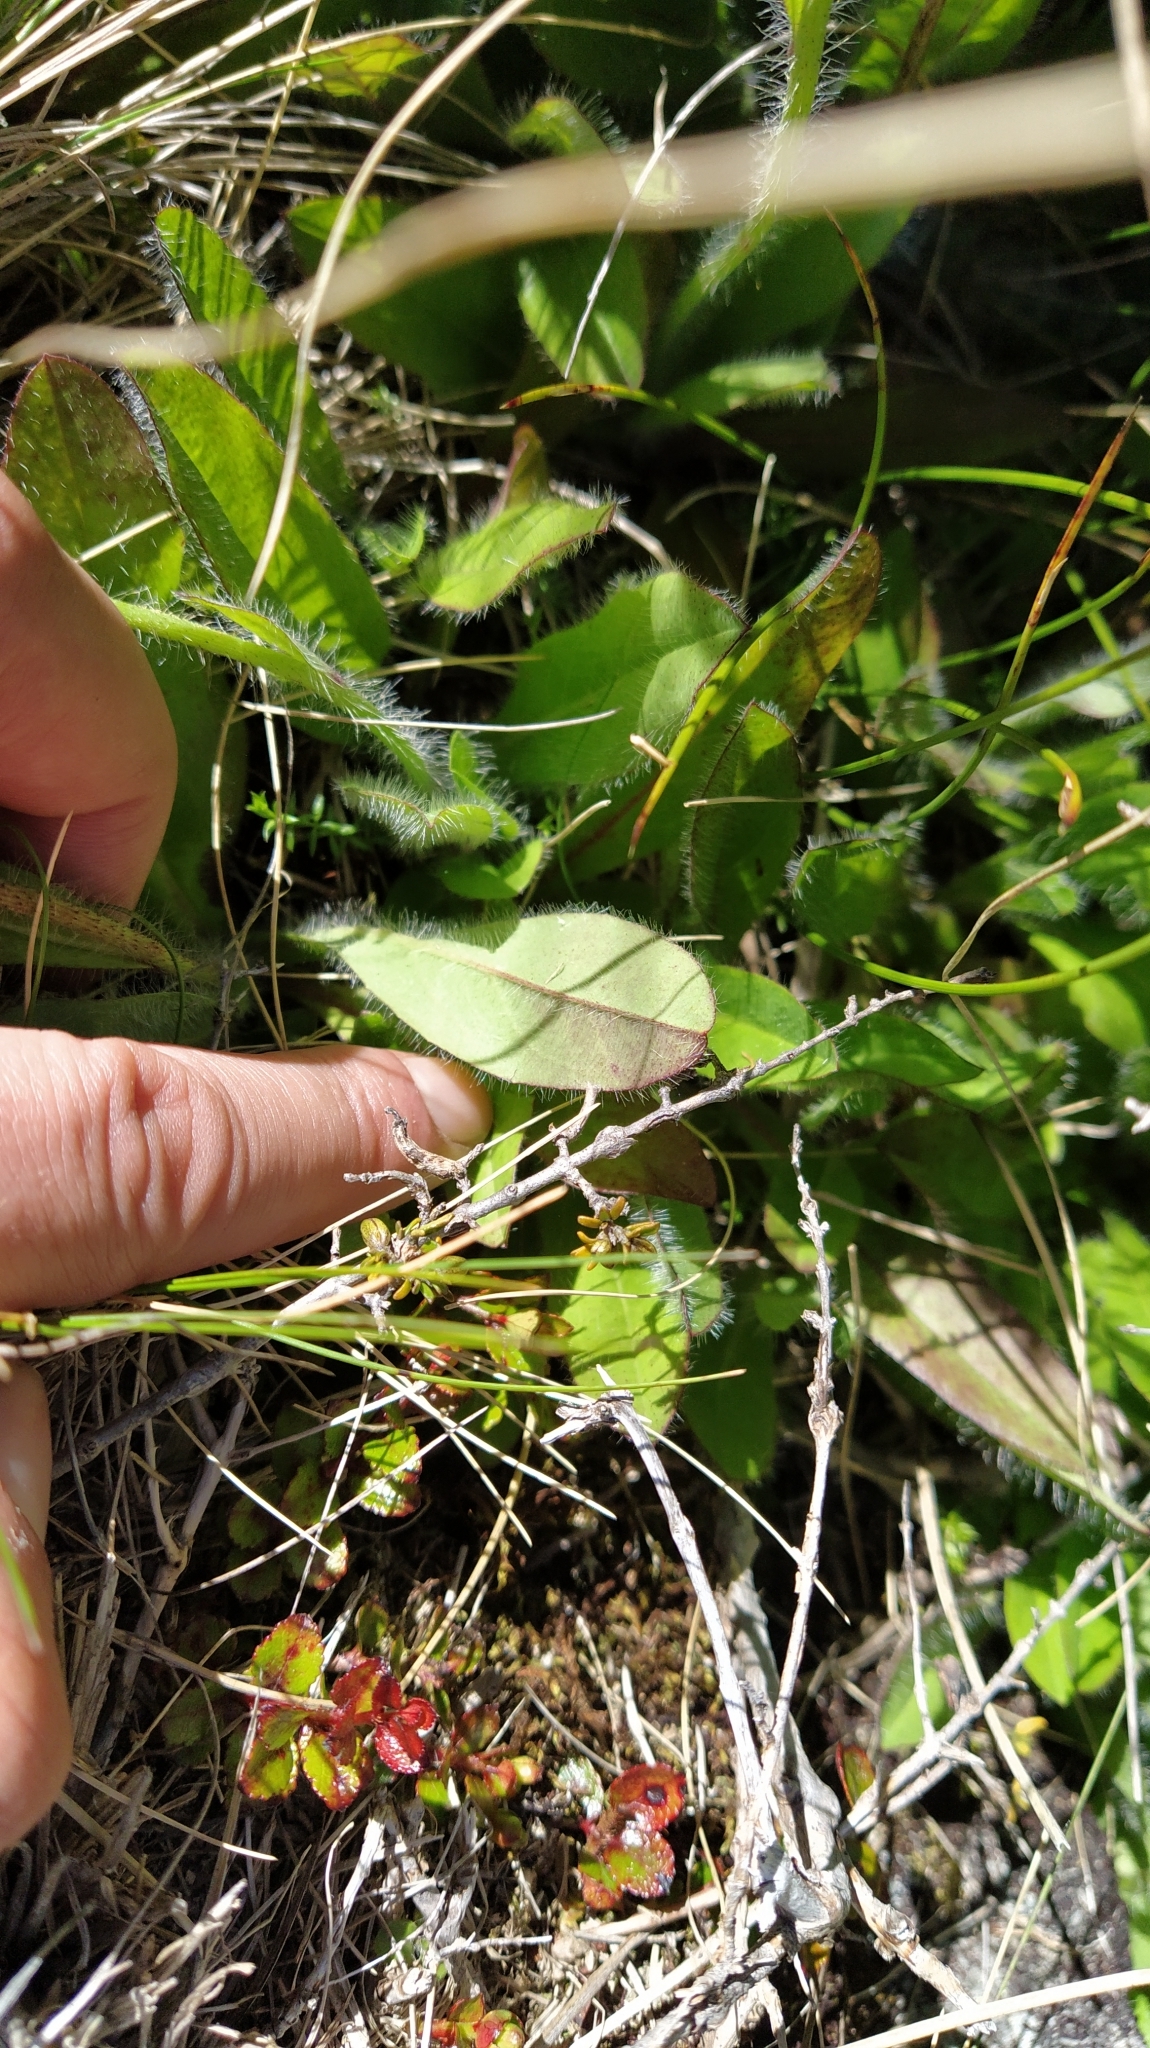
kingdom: Plantae
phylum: Tracheophyta
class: Magnoliopsida
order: Asterales
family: Asteraceae
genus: Pilosella
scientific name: Pilosella aurantiaca
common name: Fox-and-cubs
